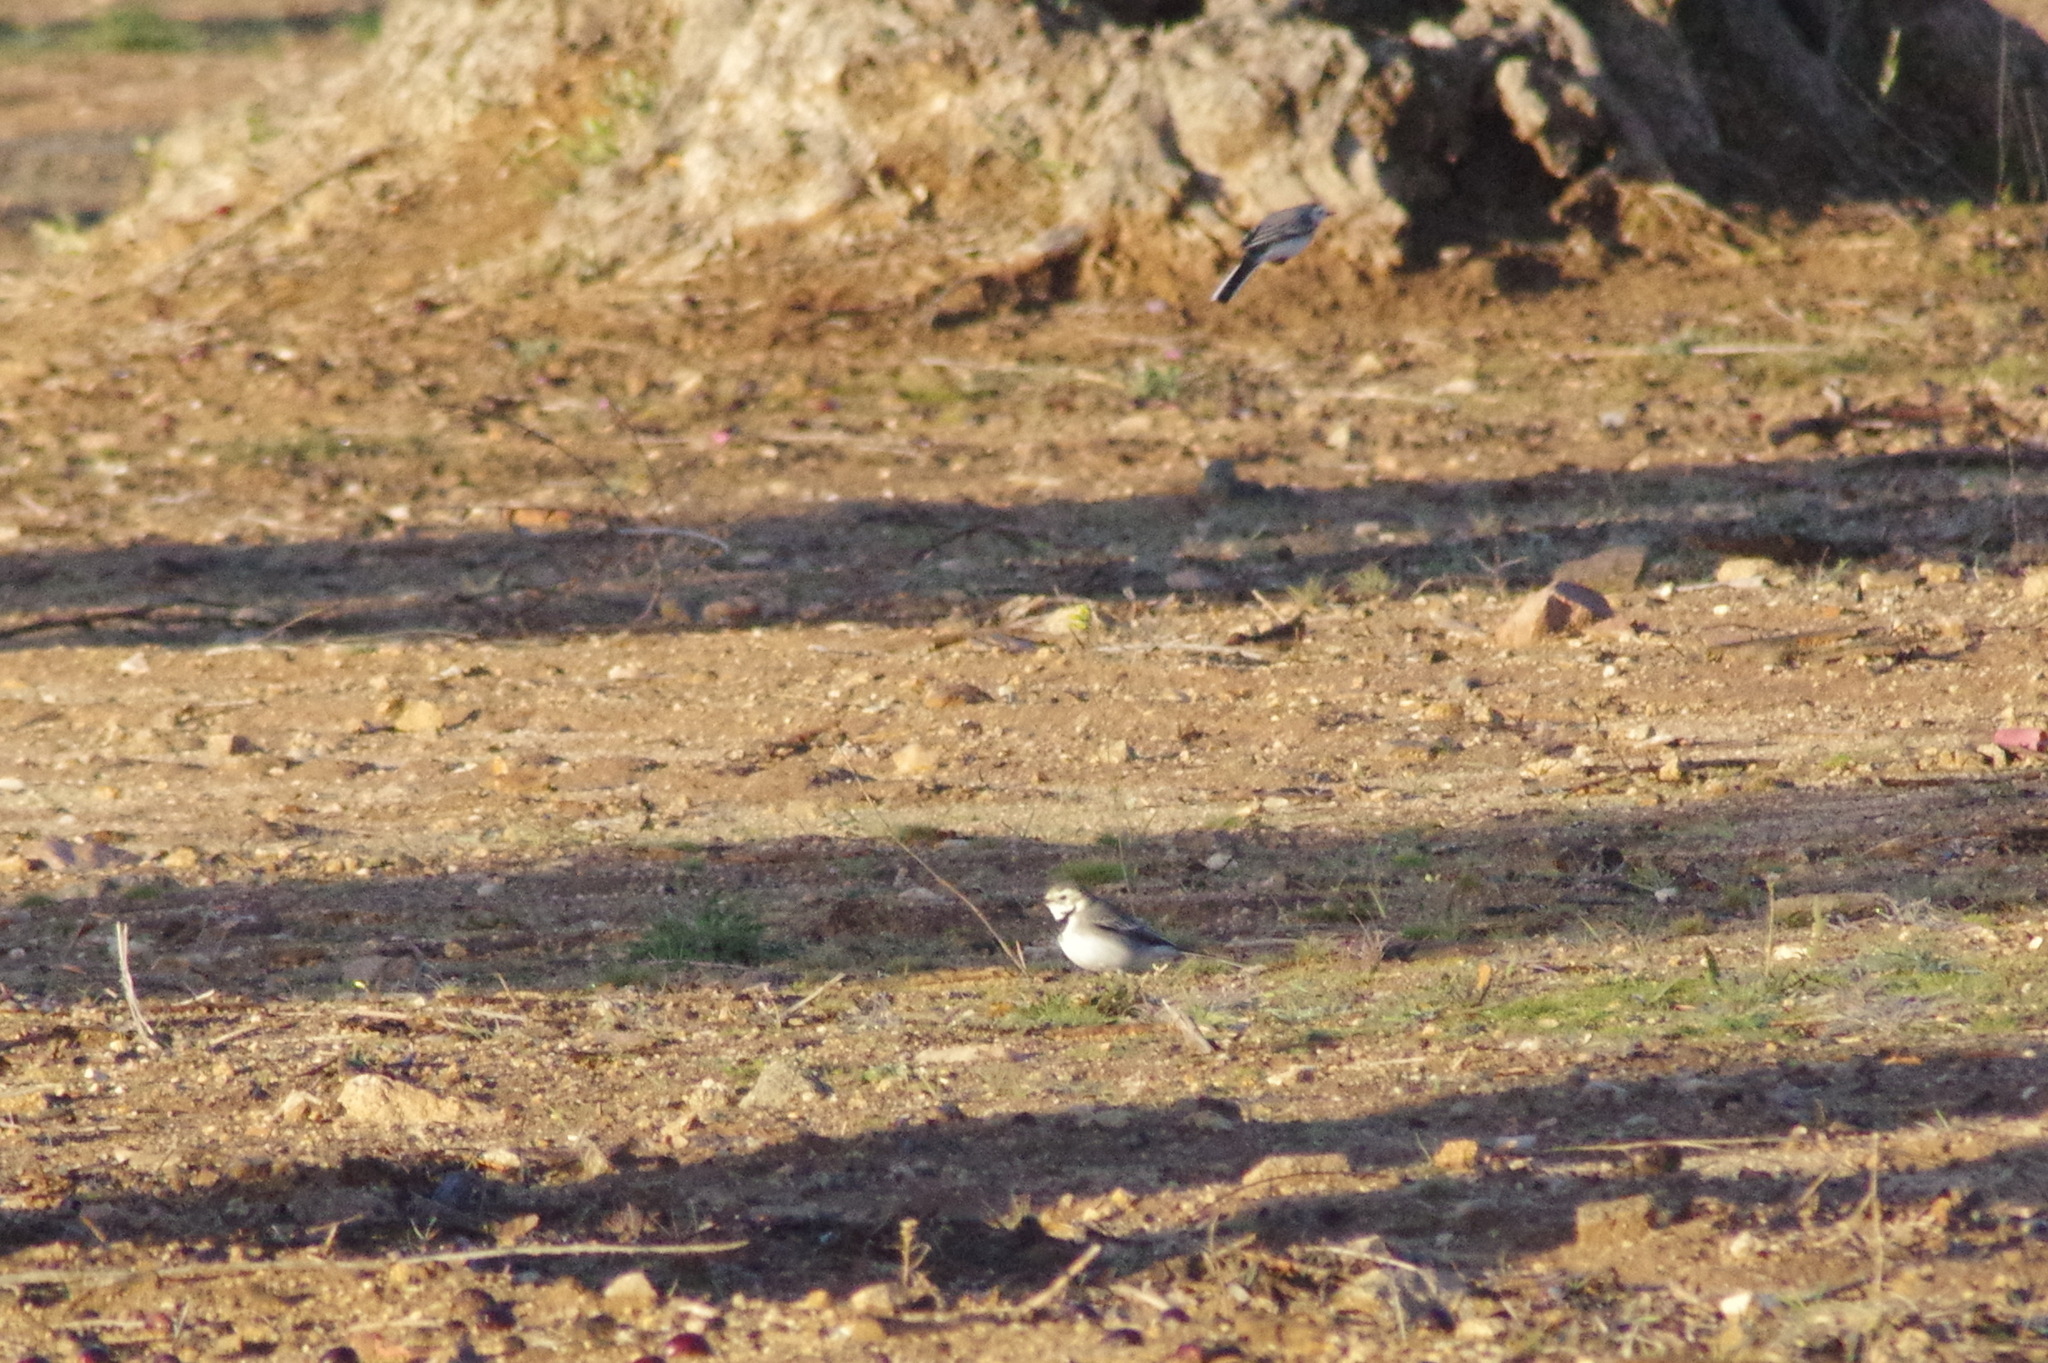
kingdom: Animalia
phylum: Chordata
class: Aves
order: Passeriformes
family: Motacillidae
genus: Motacilla
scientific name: Motacilla alba
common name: White wagtail
